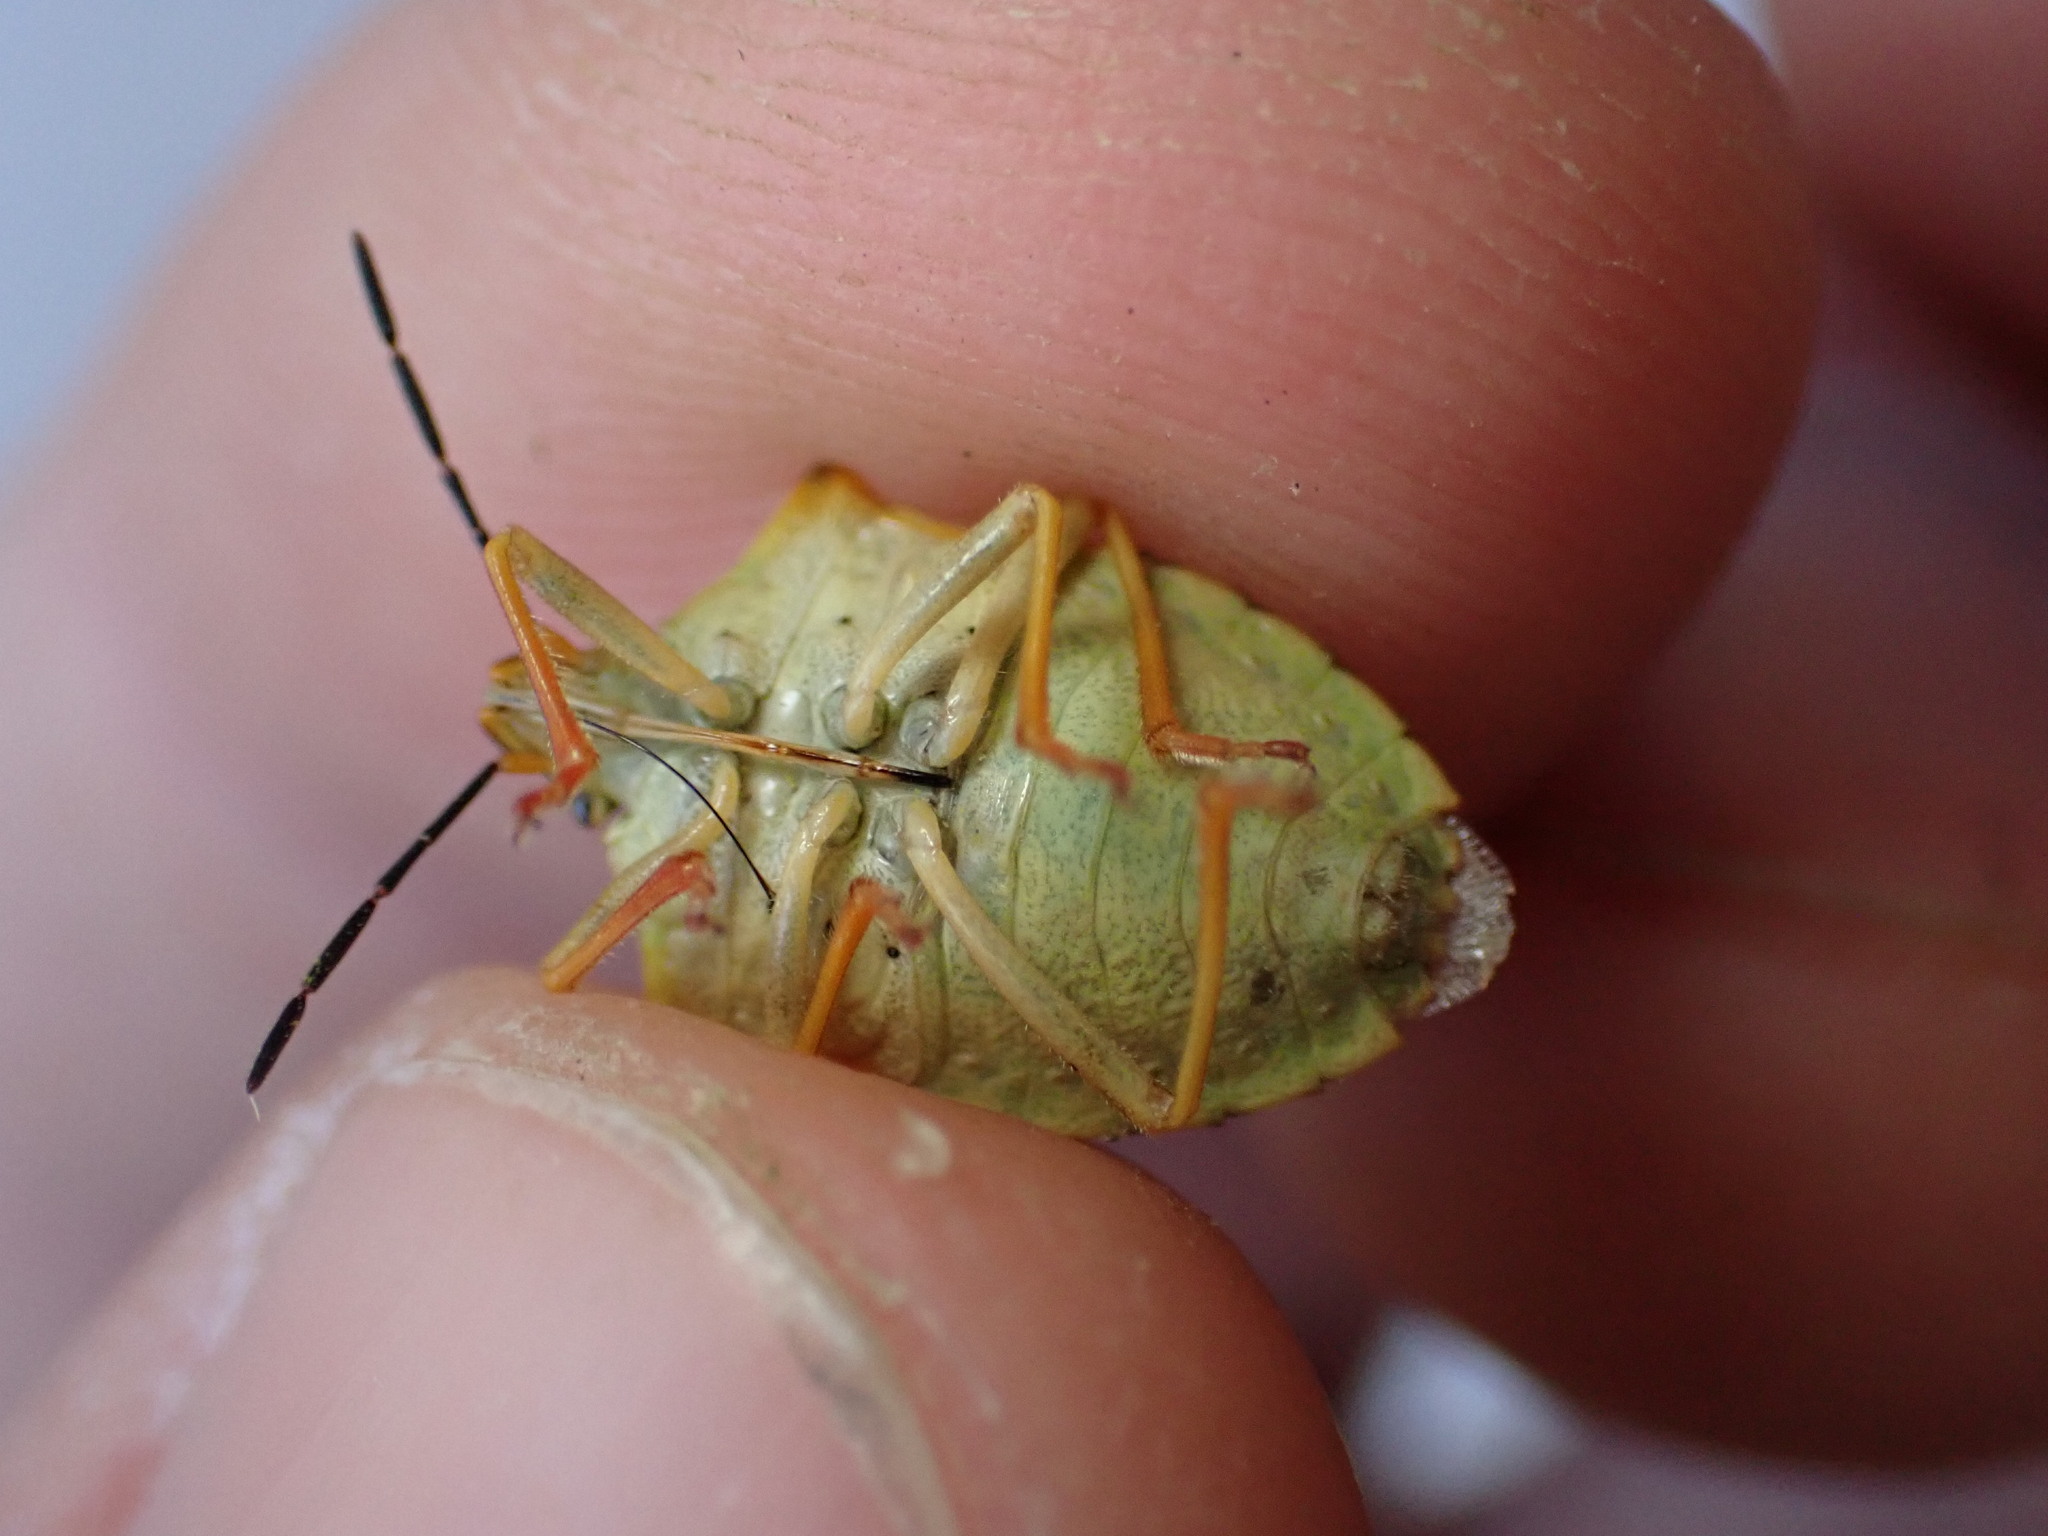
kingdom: Animalia
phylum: Arthropoda
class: Insecta
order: Hemiptera
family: Pentatomidae
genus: Carpocoris
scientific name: Carpocoris mediterraneus
